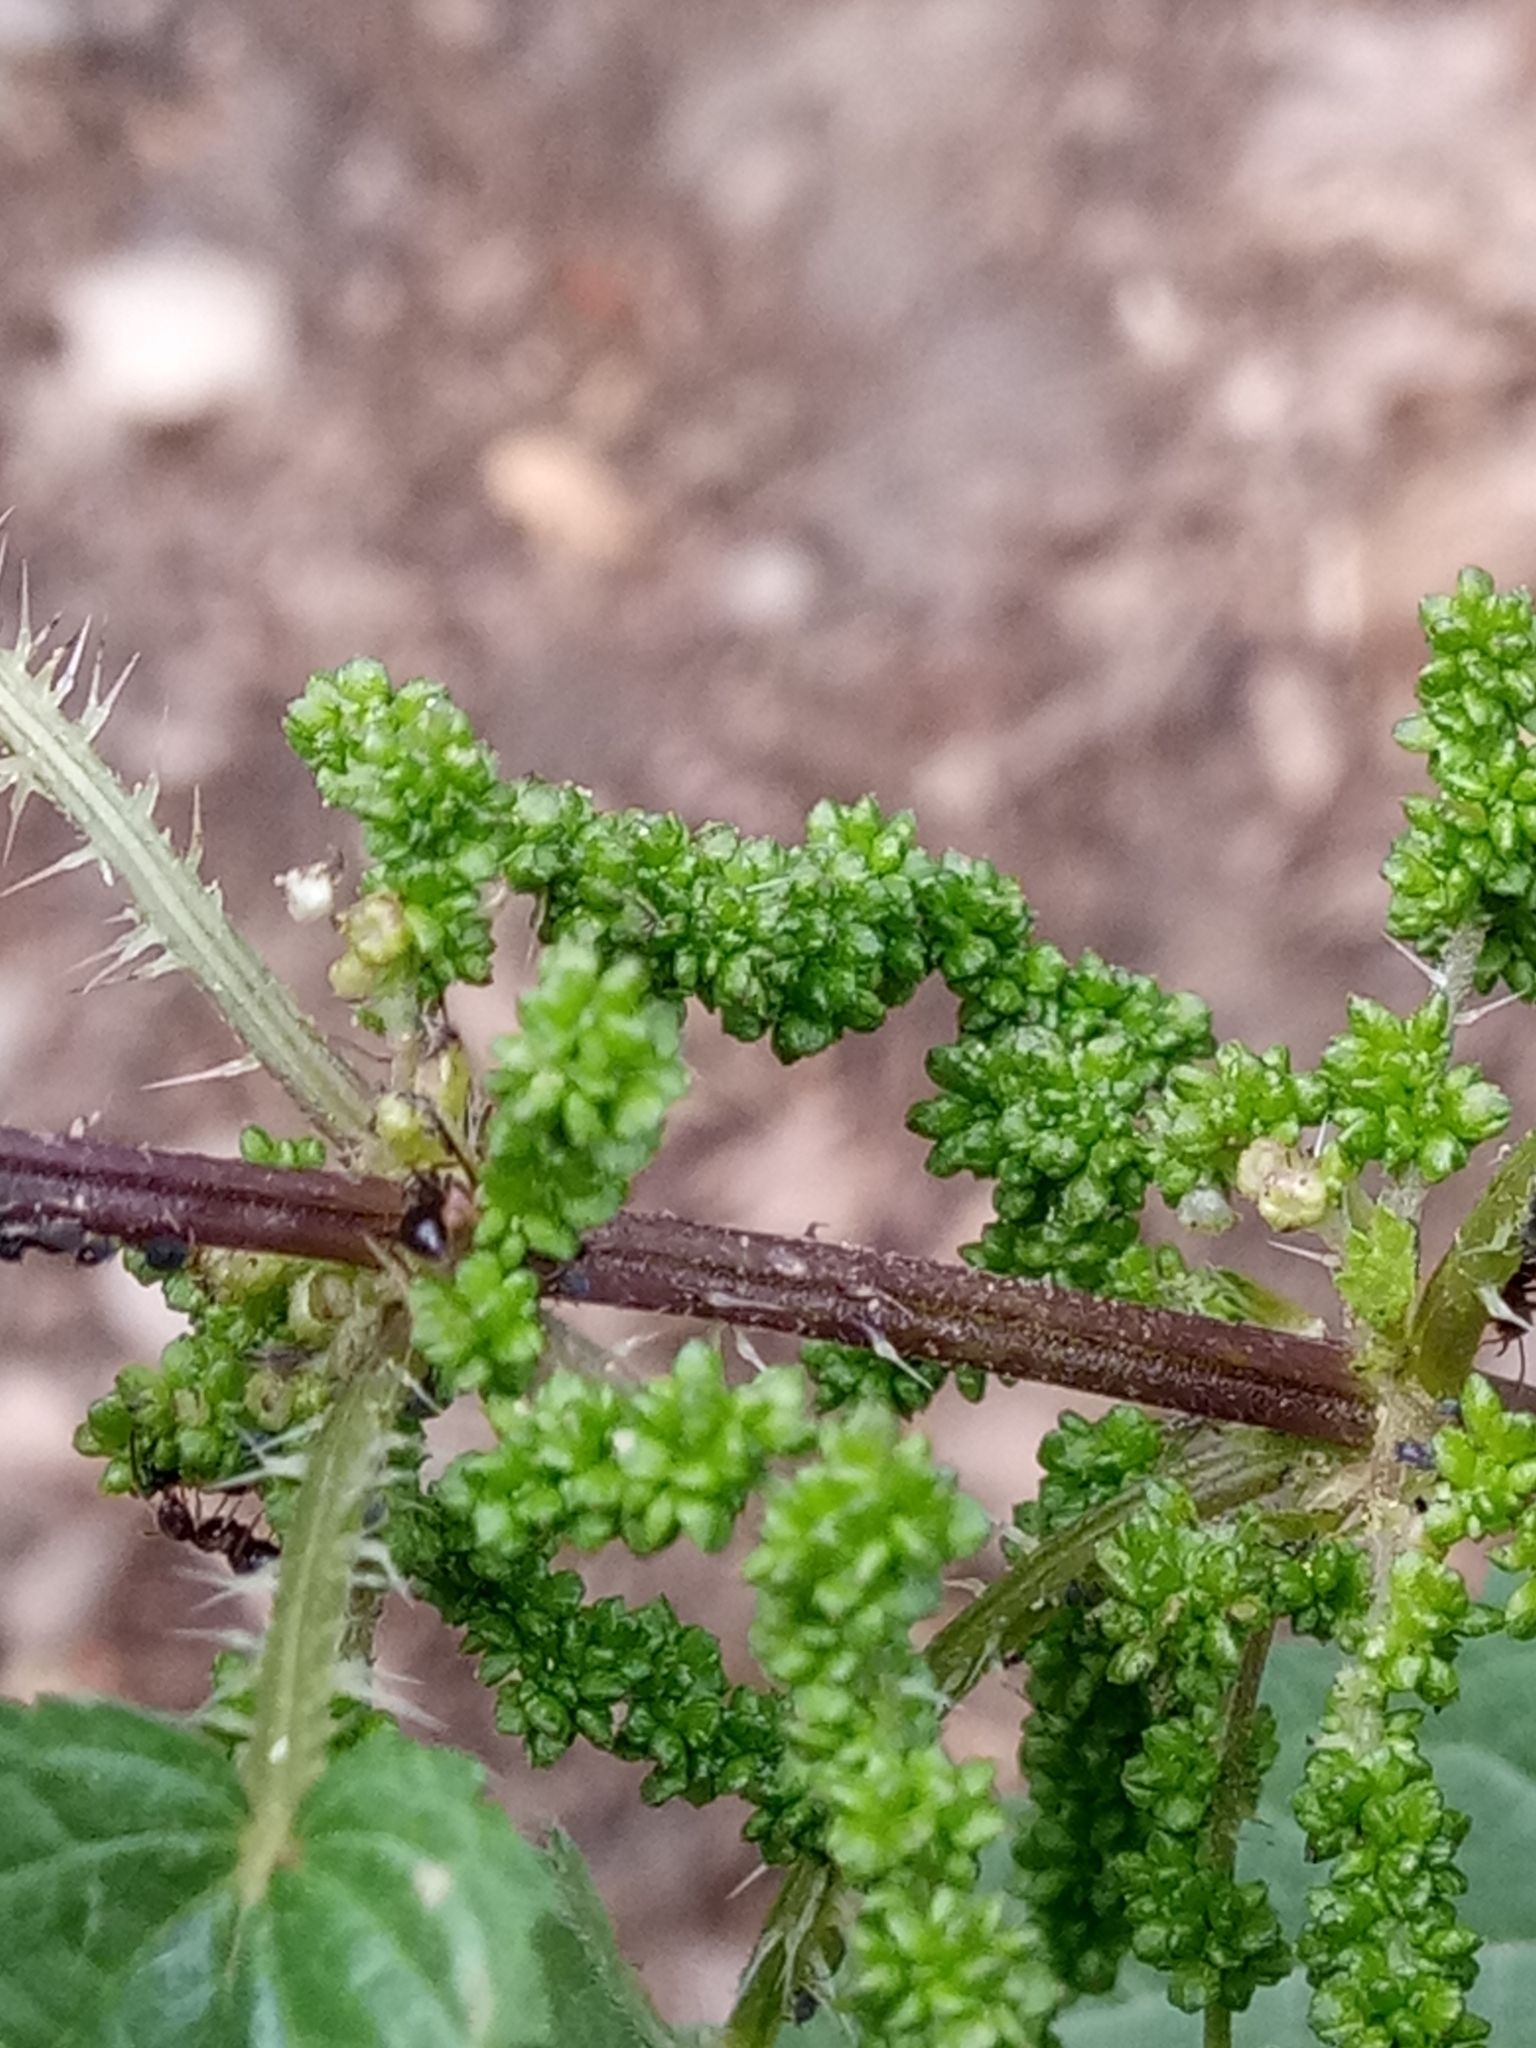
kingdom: Plantae
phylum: Tracheophyta
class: Magnoliopsida
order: Rosales
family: Urticaceae
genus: Urtica
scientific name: Urtica dioica
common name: Common nettle
